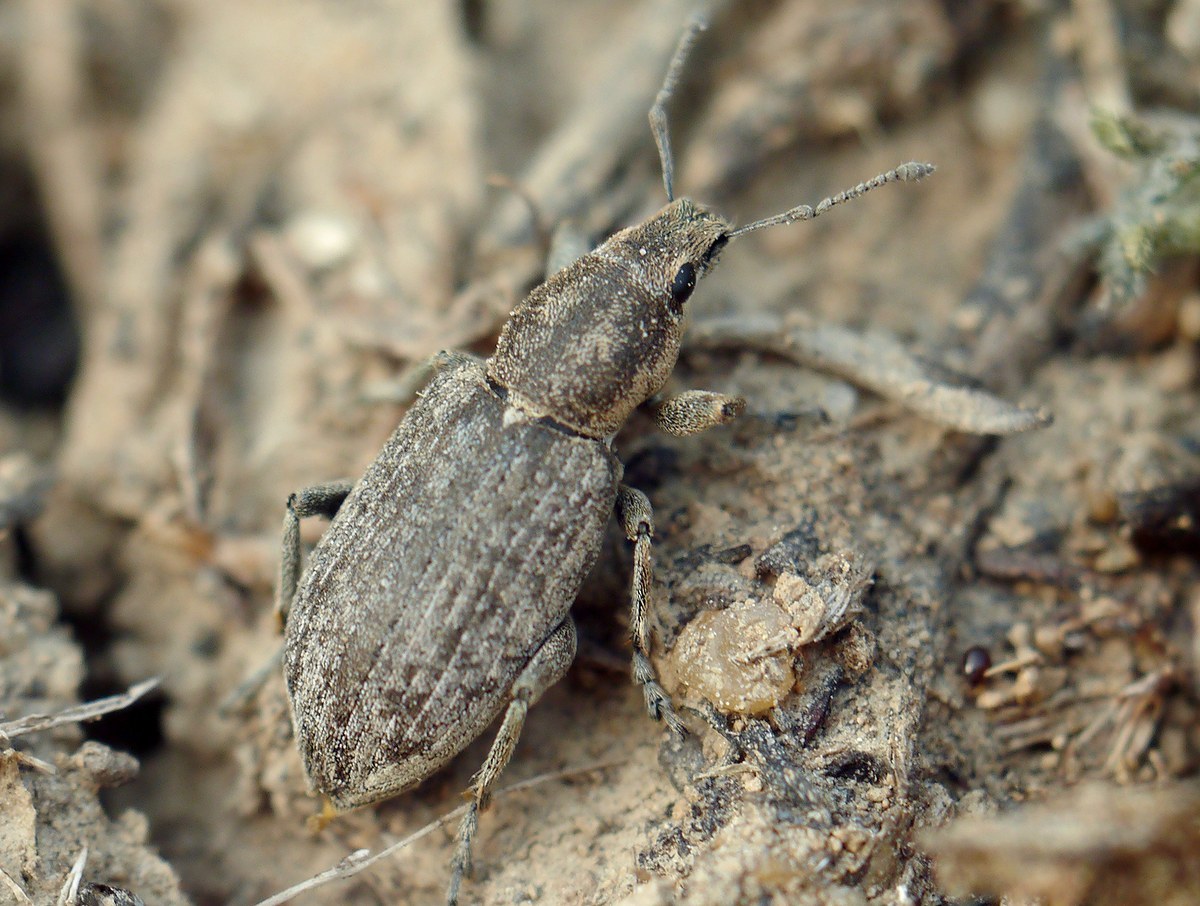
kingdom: Animalia
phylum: Arthropoda
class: Insecta
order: Coleoptera
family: Curculionidae
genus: Tanymecus
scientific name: Tanymecus palliatus
